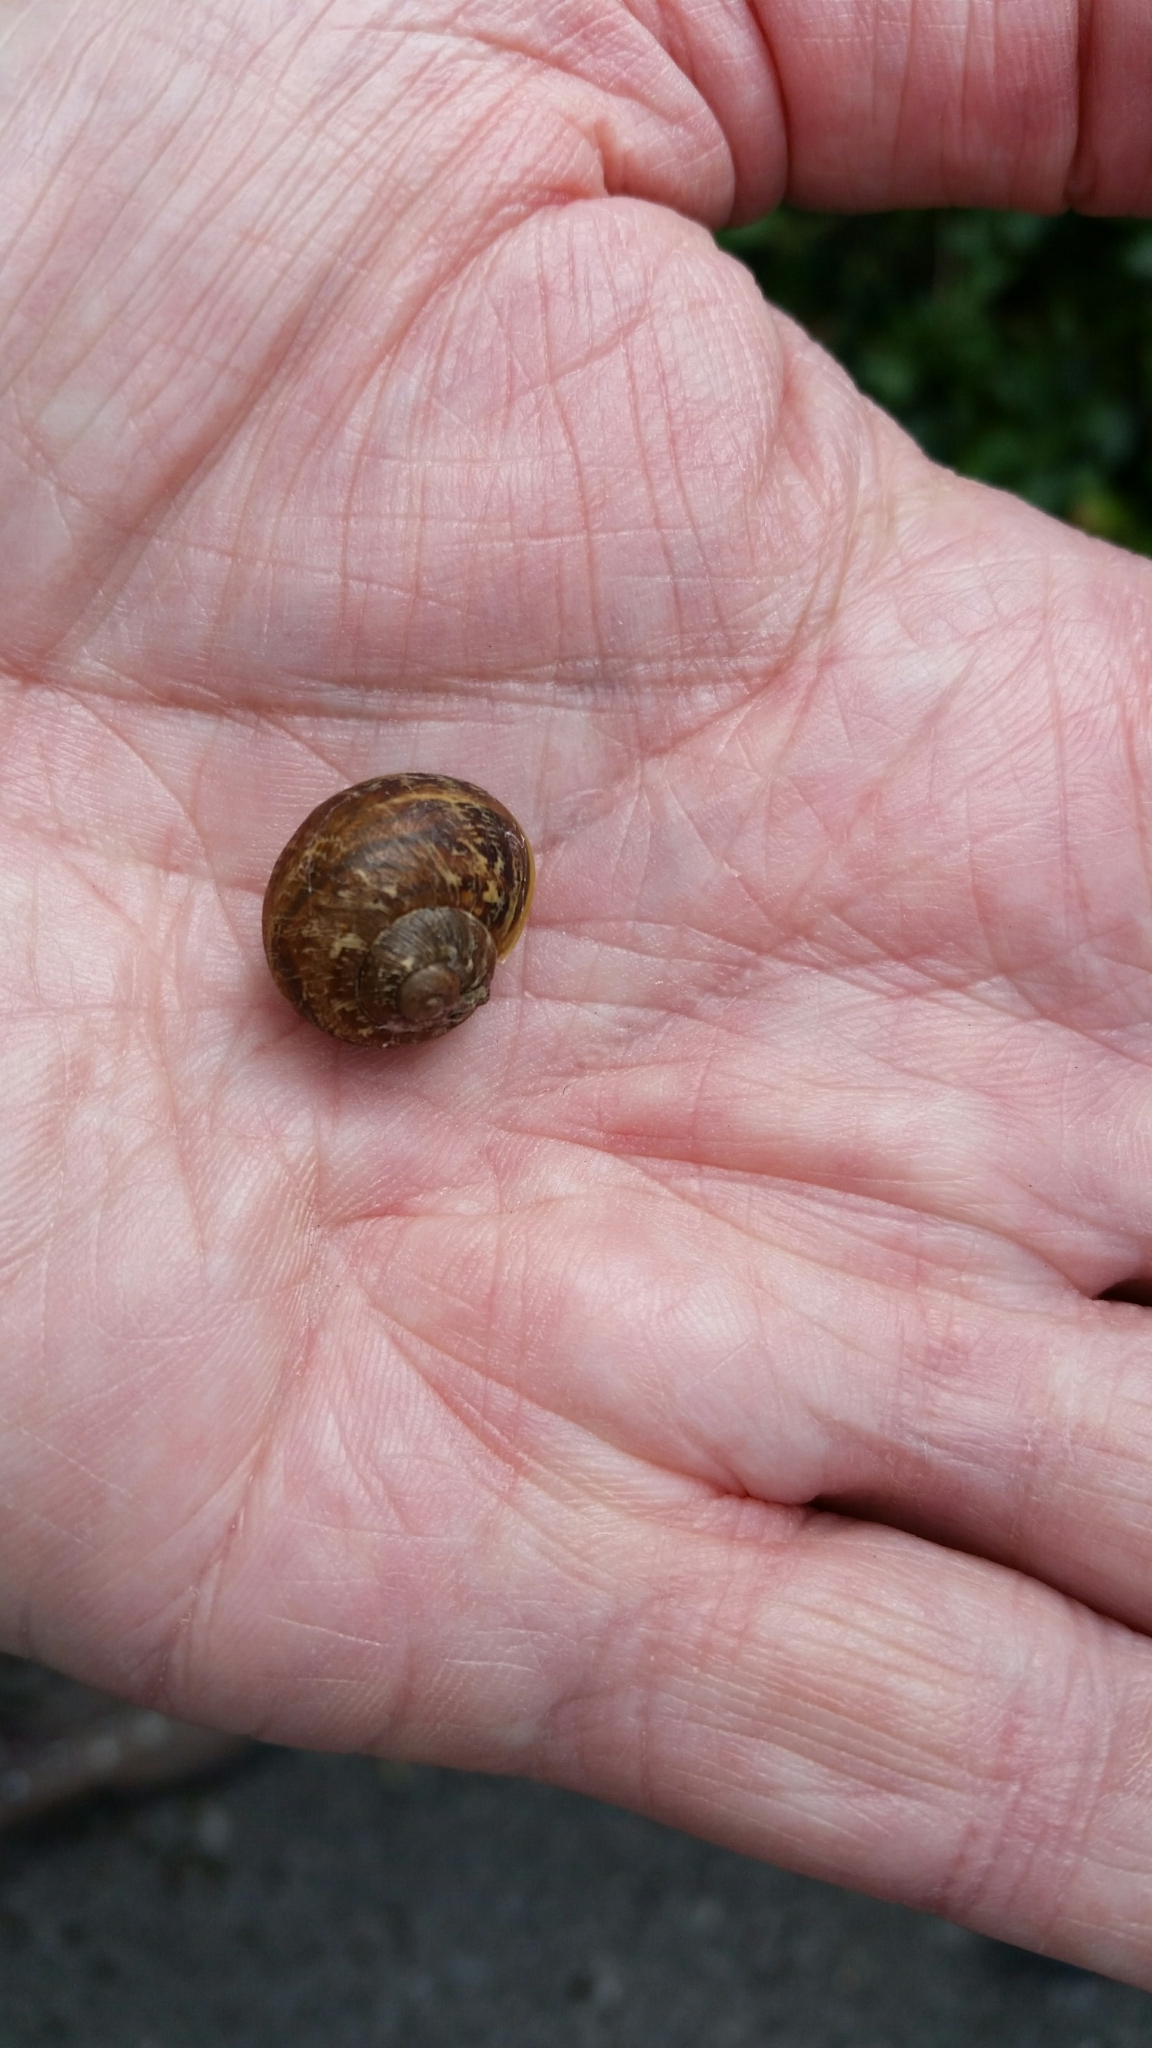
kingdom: Animalia
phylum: Mollusca
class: Gastropoda
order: Stylommatophora
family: Helicidae
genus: Cornu
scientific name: Cornu aspersum
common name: Brown garden snail
